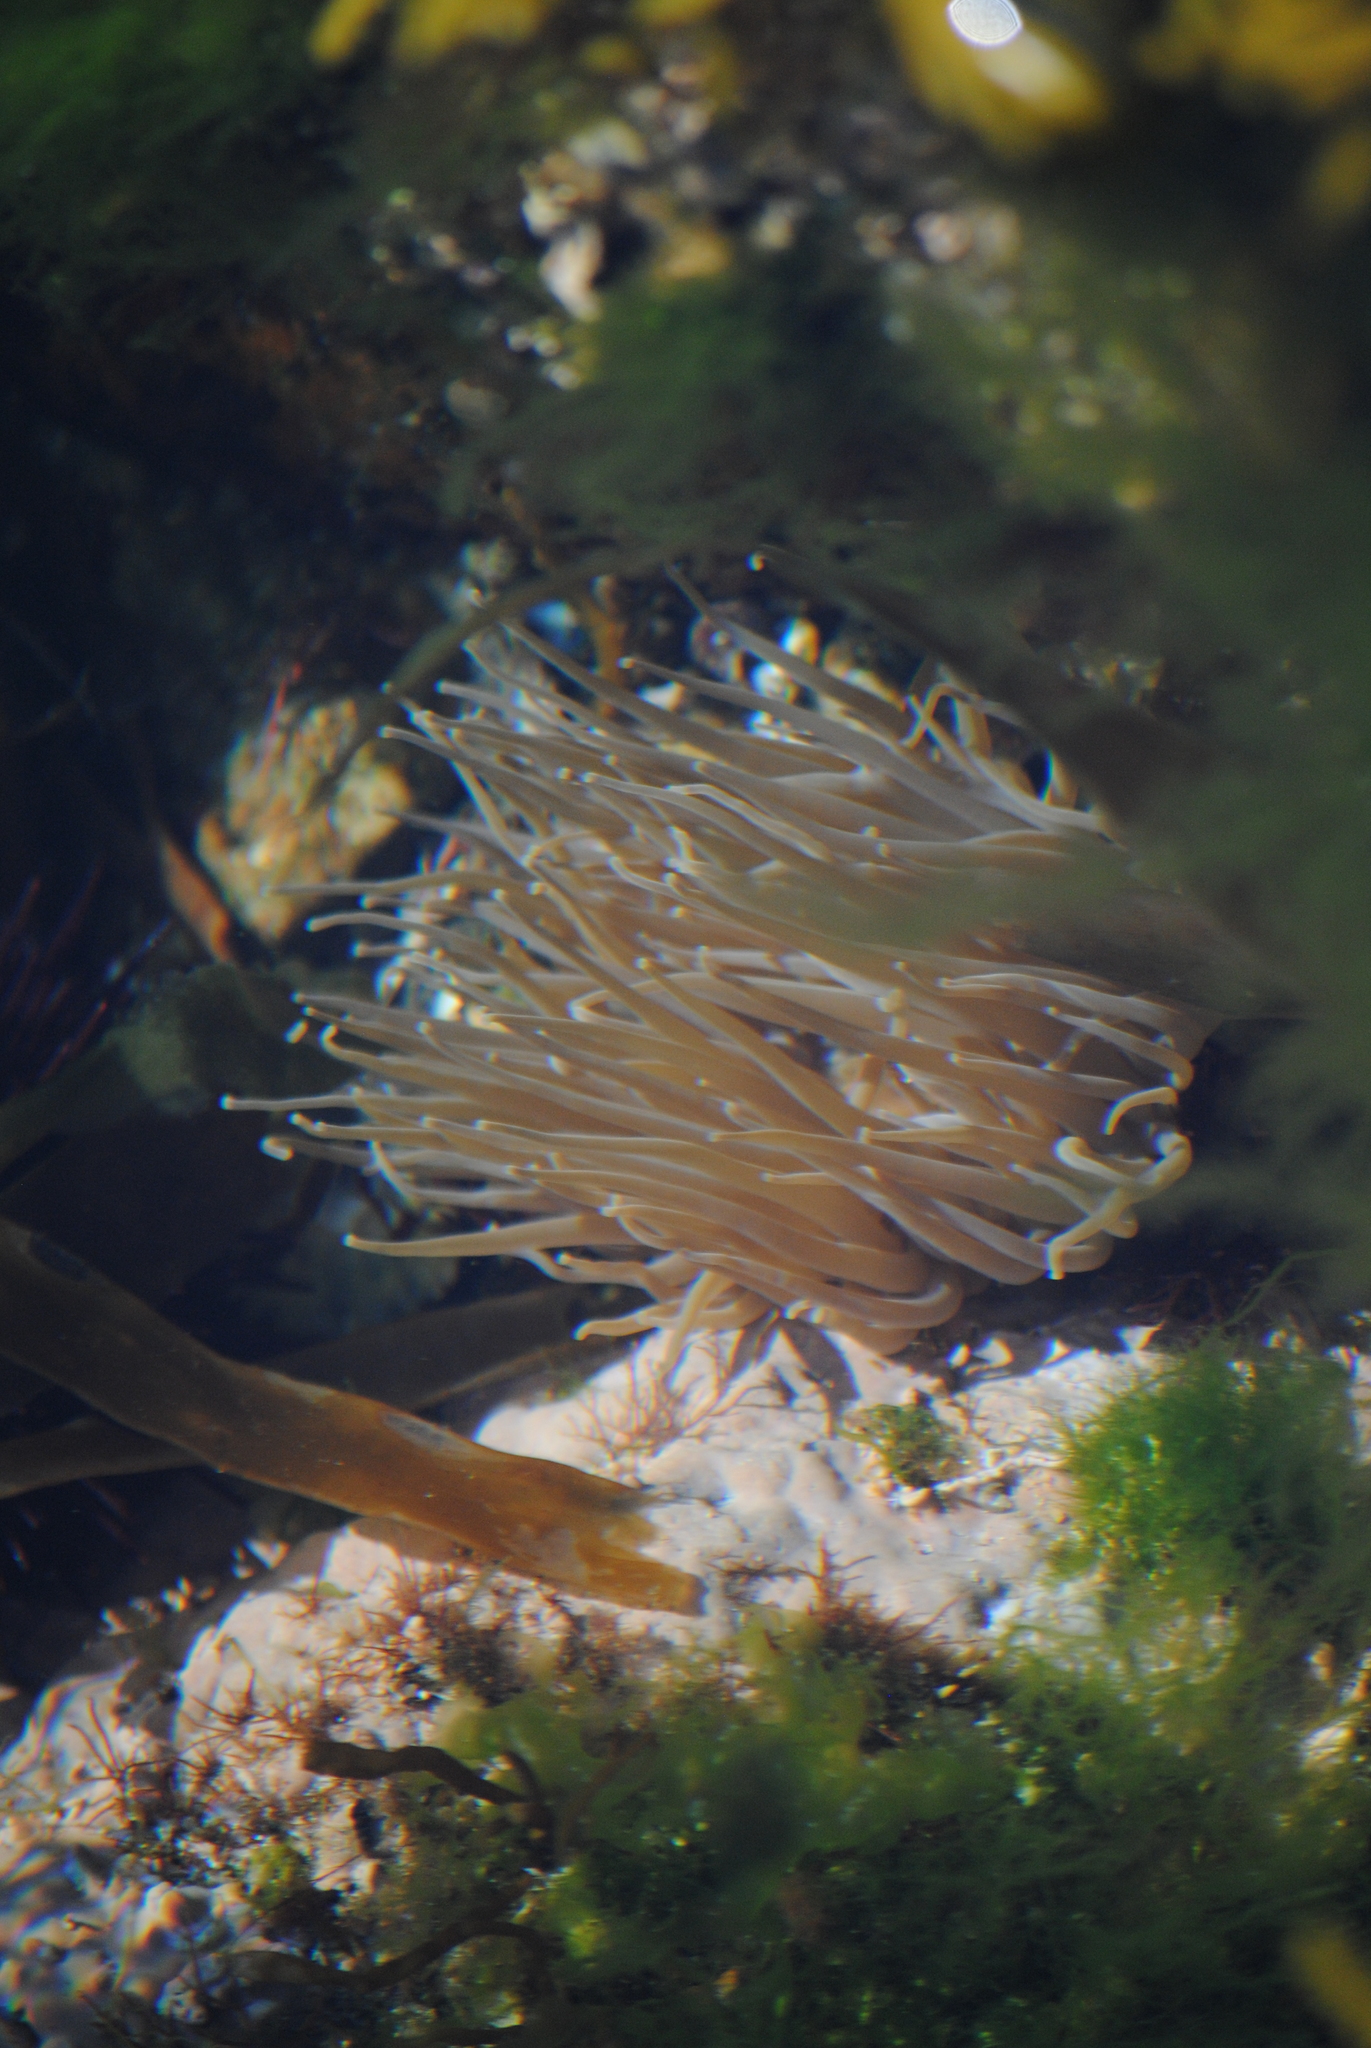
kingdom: Animalia
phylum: Cnidaria
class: Anthozoa
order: Actiniaria
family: Actiniidae
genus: Anemonia
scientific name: Anemonia viridis
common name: Snakelocks anemone
